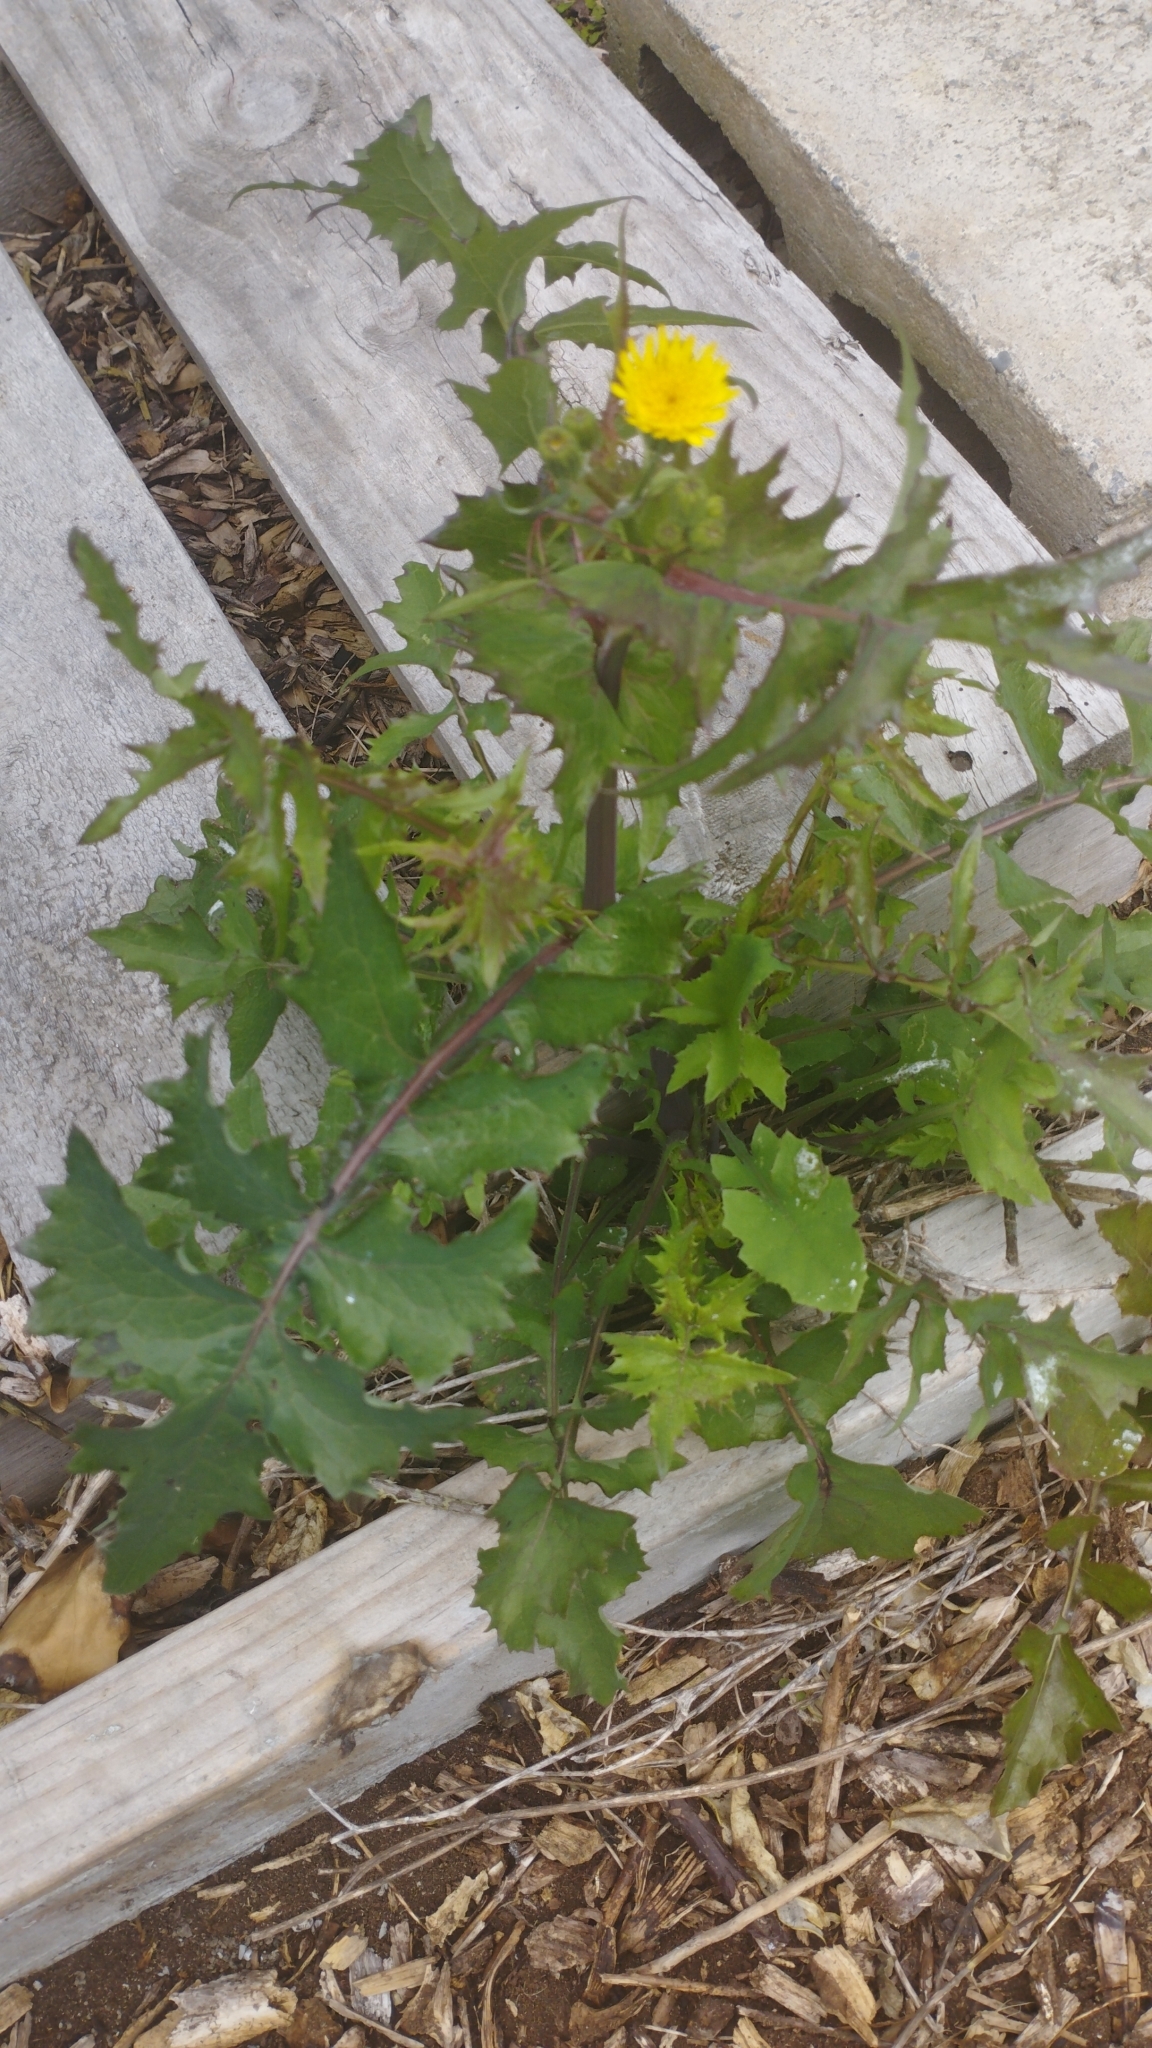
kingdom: Plantae
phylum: Tracheophyta
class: Magnoliopsida
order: Asterales
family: Asteraceae
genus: Sonchus
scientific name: Sonchus oleraceus
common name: Common sowthistle
